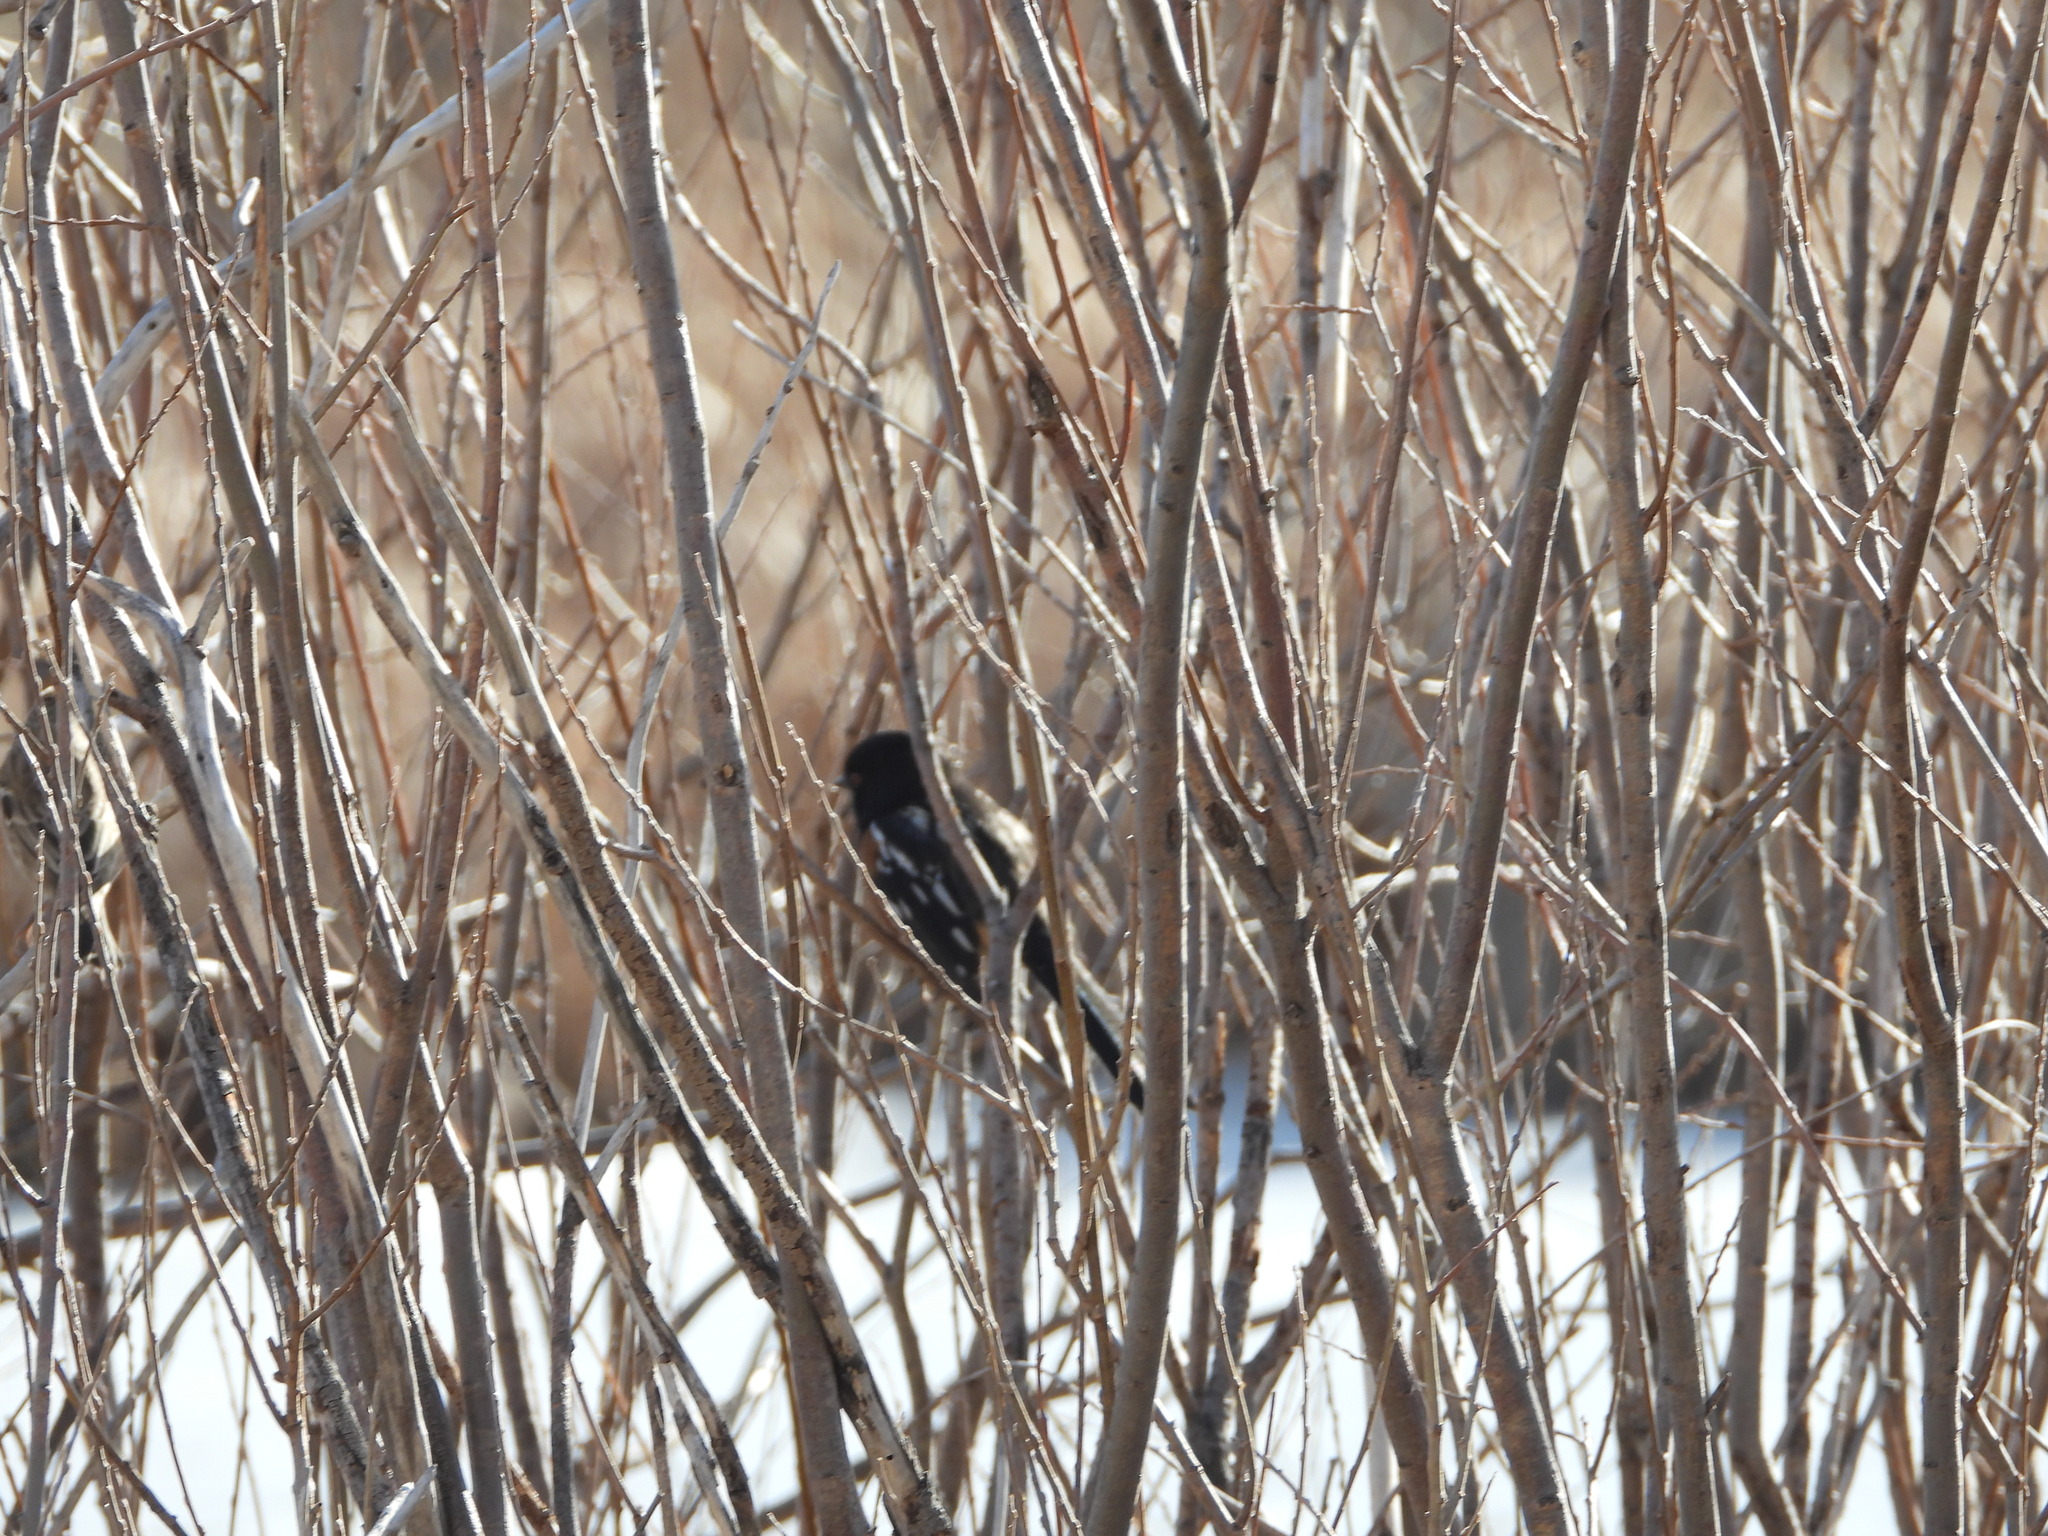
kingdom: Animalia
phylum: Chordata
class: Aves
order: Passeriformes
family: Passerellidae
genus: Pipilo
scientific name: Pipilo maculatus
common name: Spotted towhee
